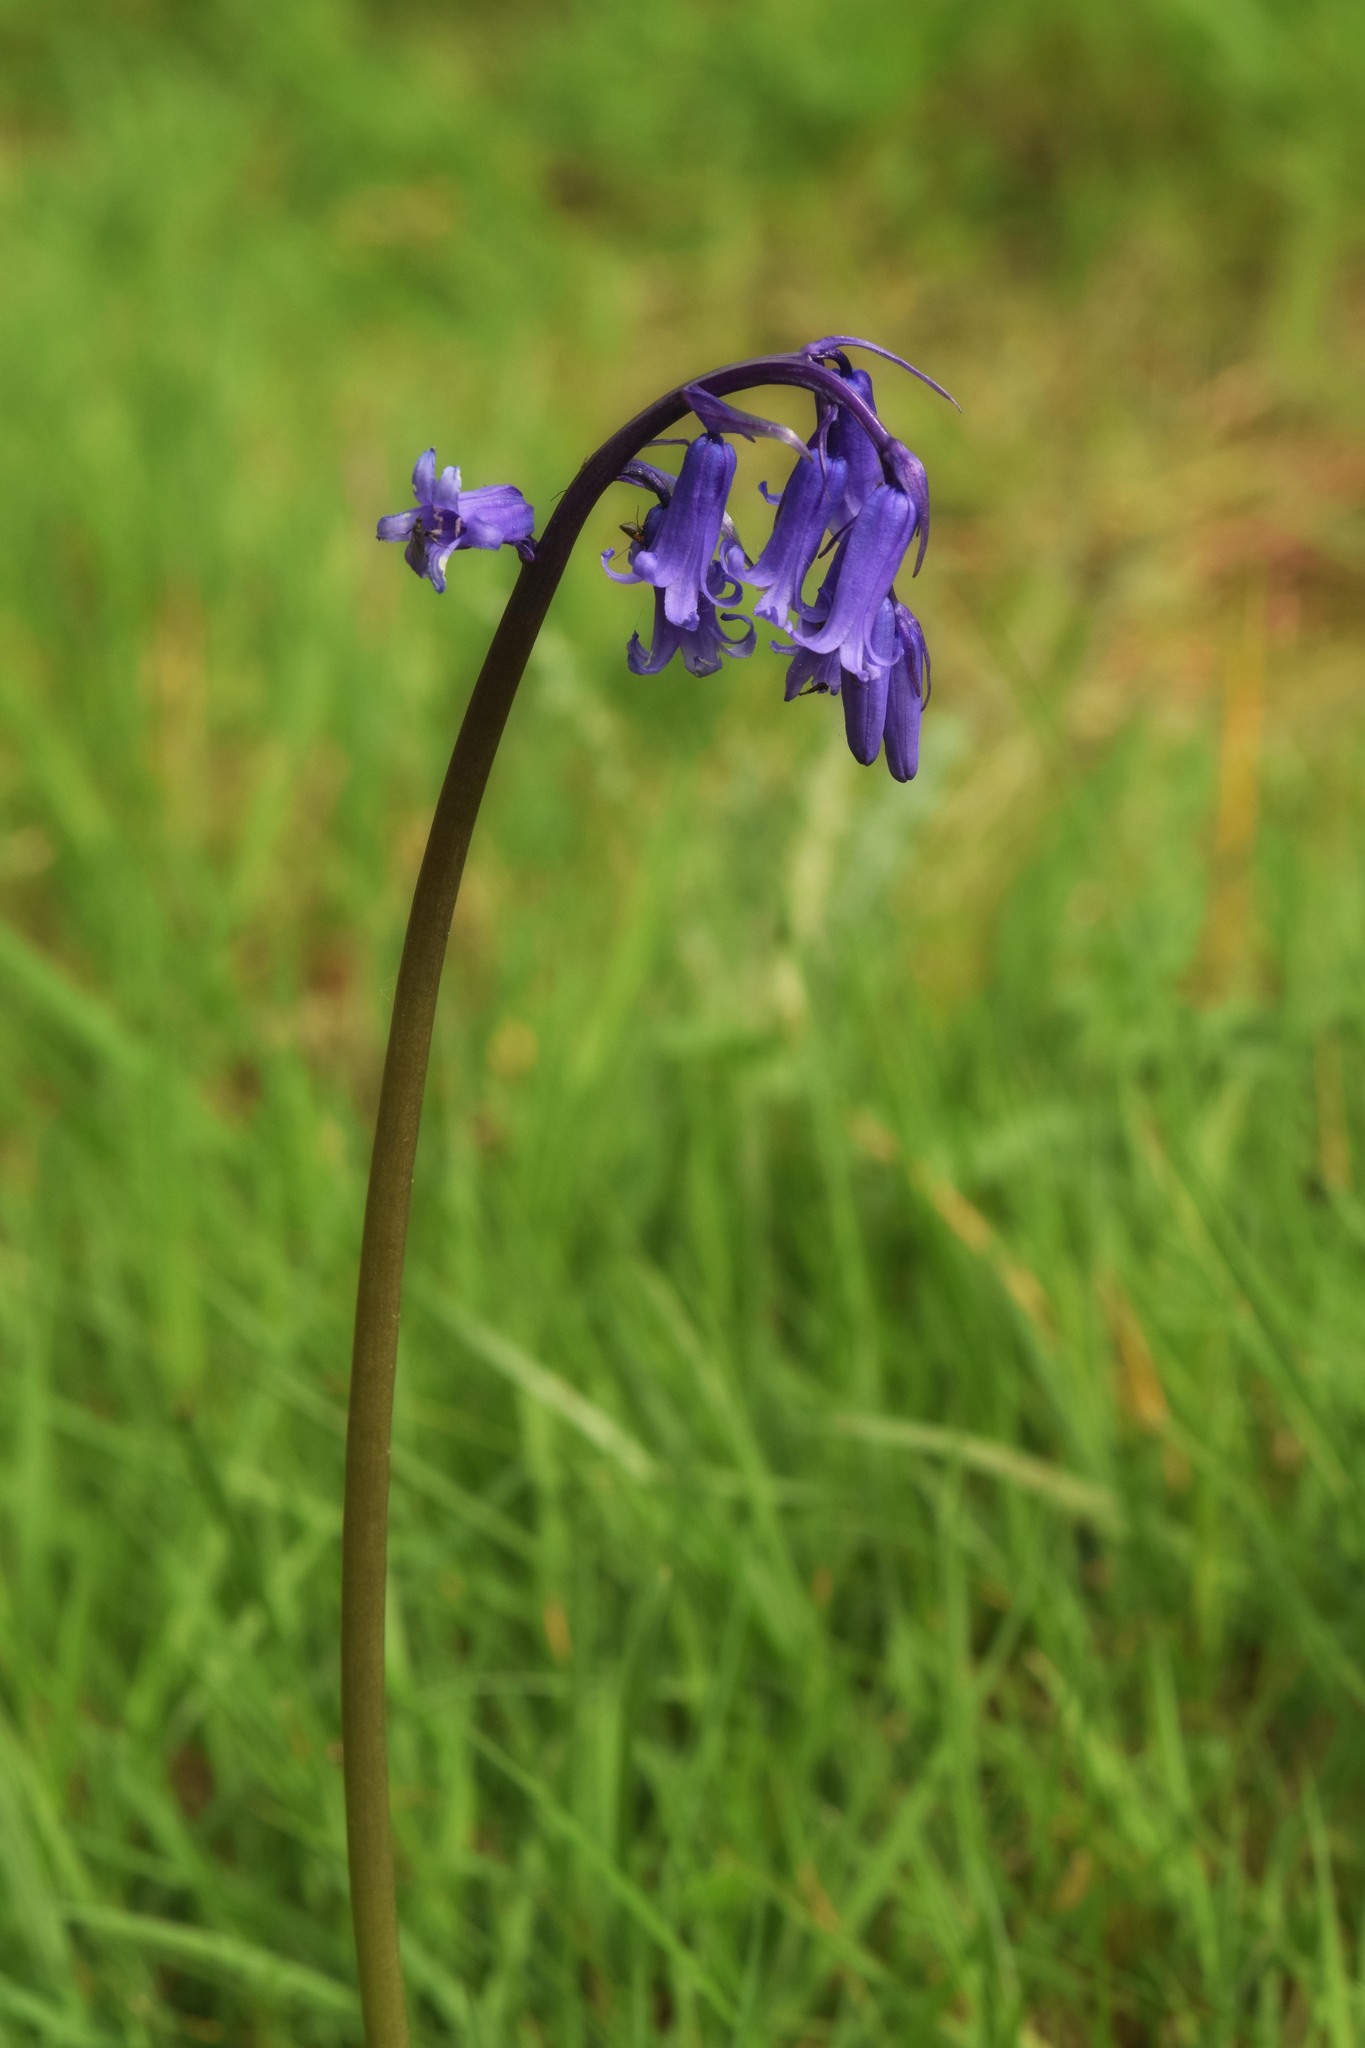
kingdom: Plantae
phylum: Tracheophyta
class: Liliopsida
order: Asparagales
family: Asparagaceae
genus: Hyacinthoides
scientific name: Hyacinthoides non-scripta
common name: Bluebell
